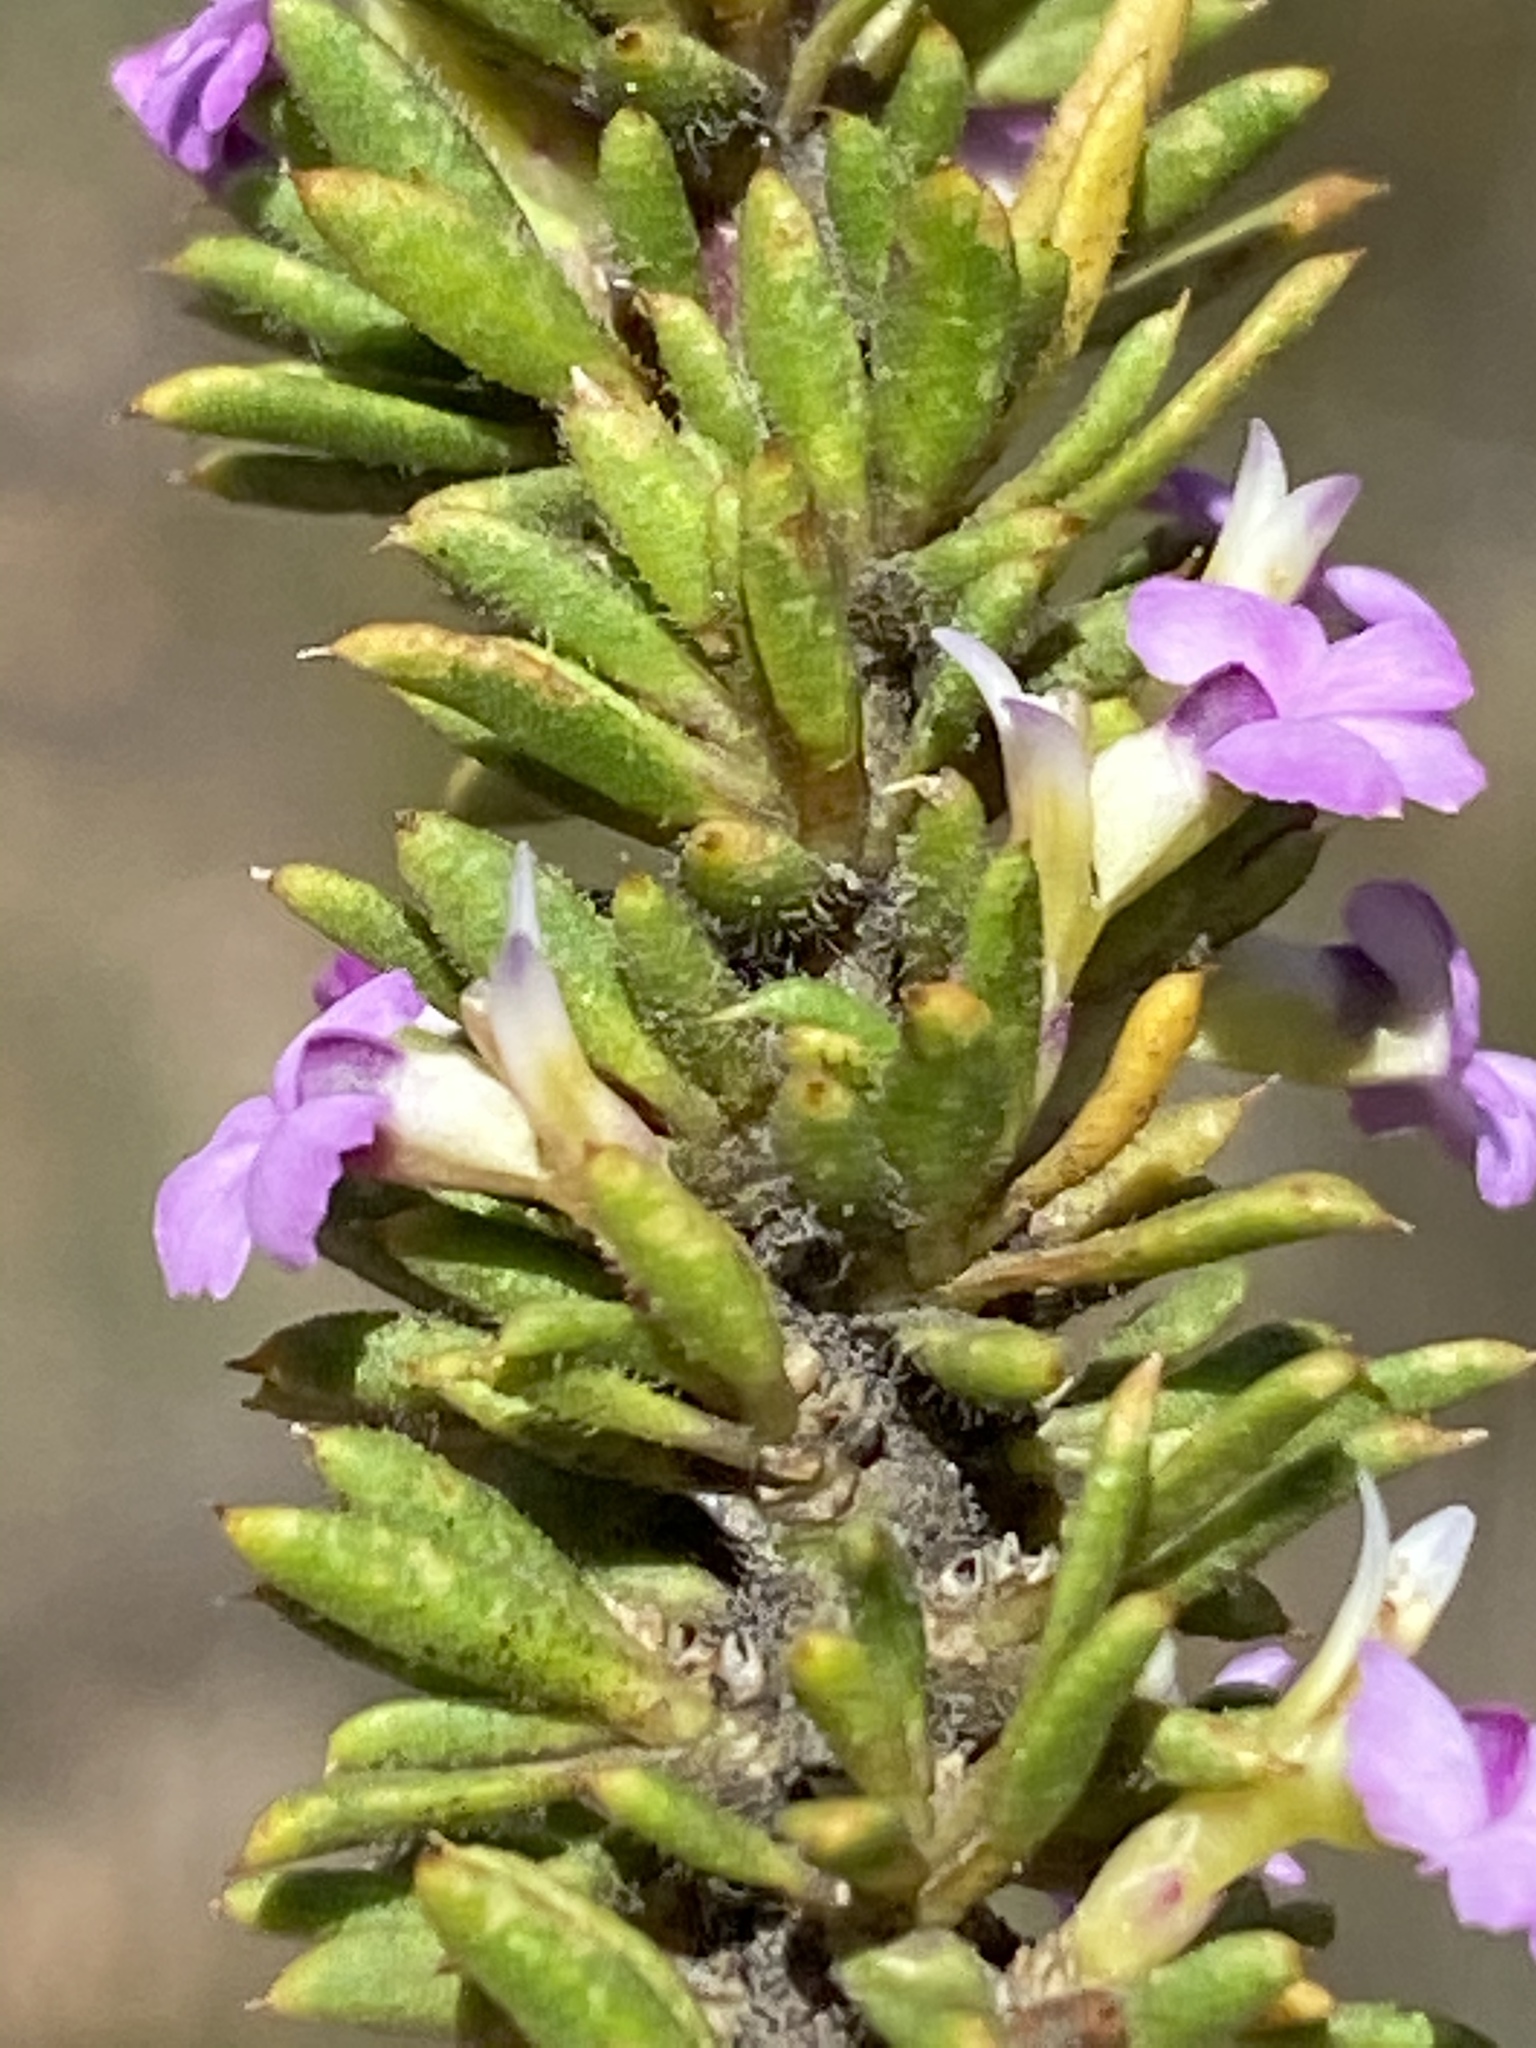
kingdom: Plantae
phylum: Tracheophyta
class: Magnoliopsida
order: Fabales
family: Polygalaceae
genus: Muraltia
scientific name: Muraltia alopecuroides
